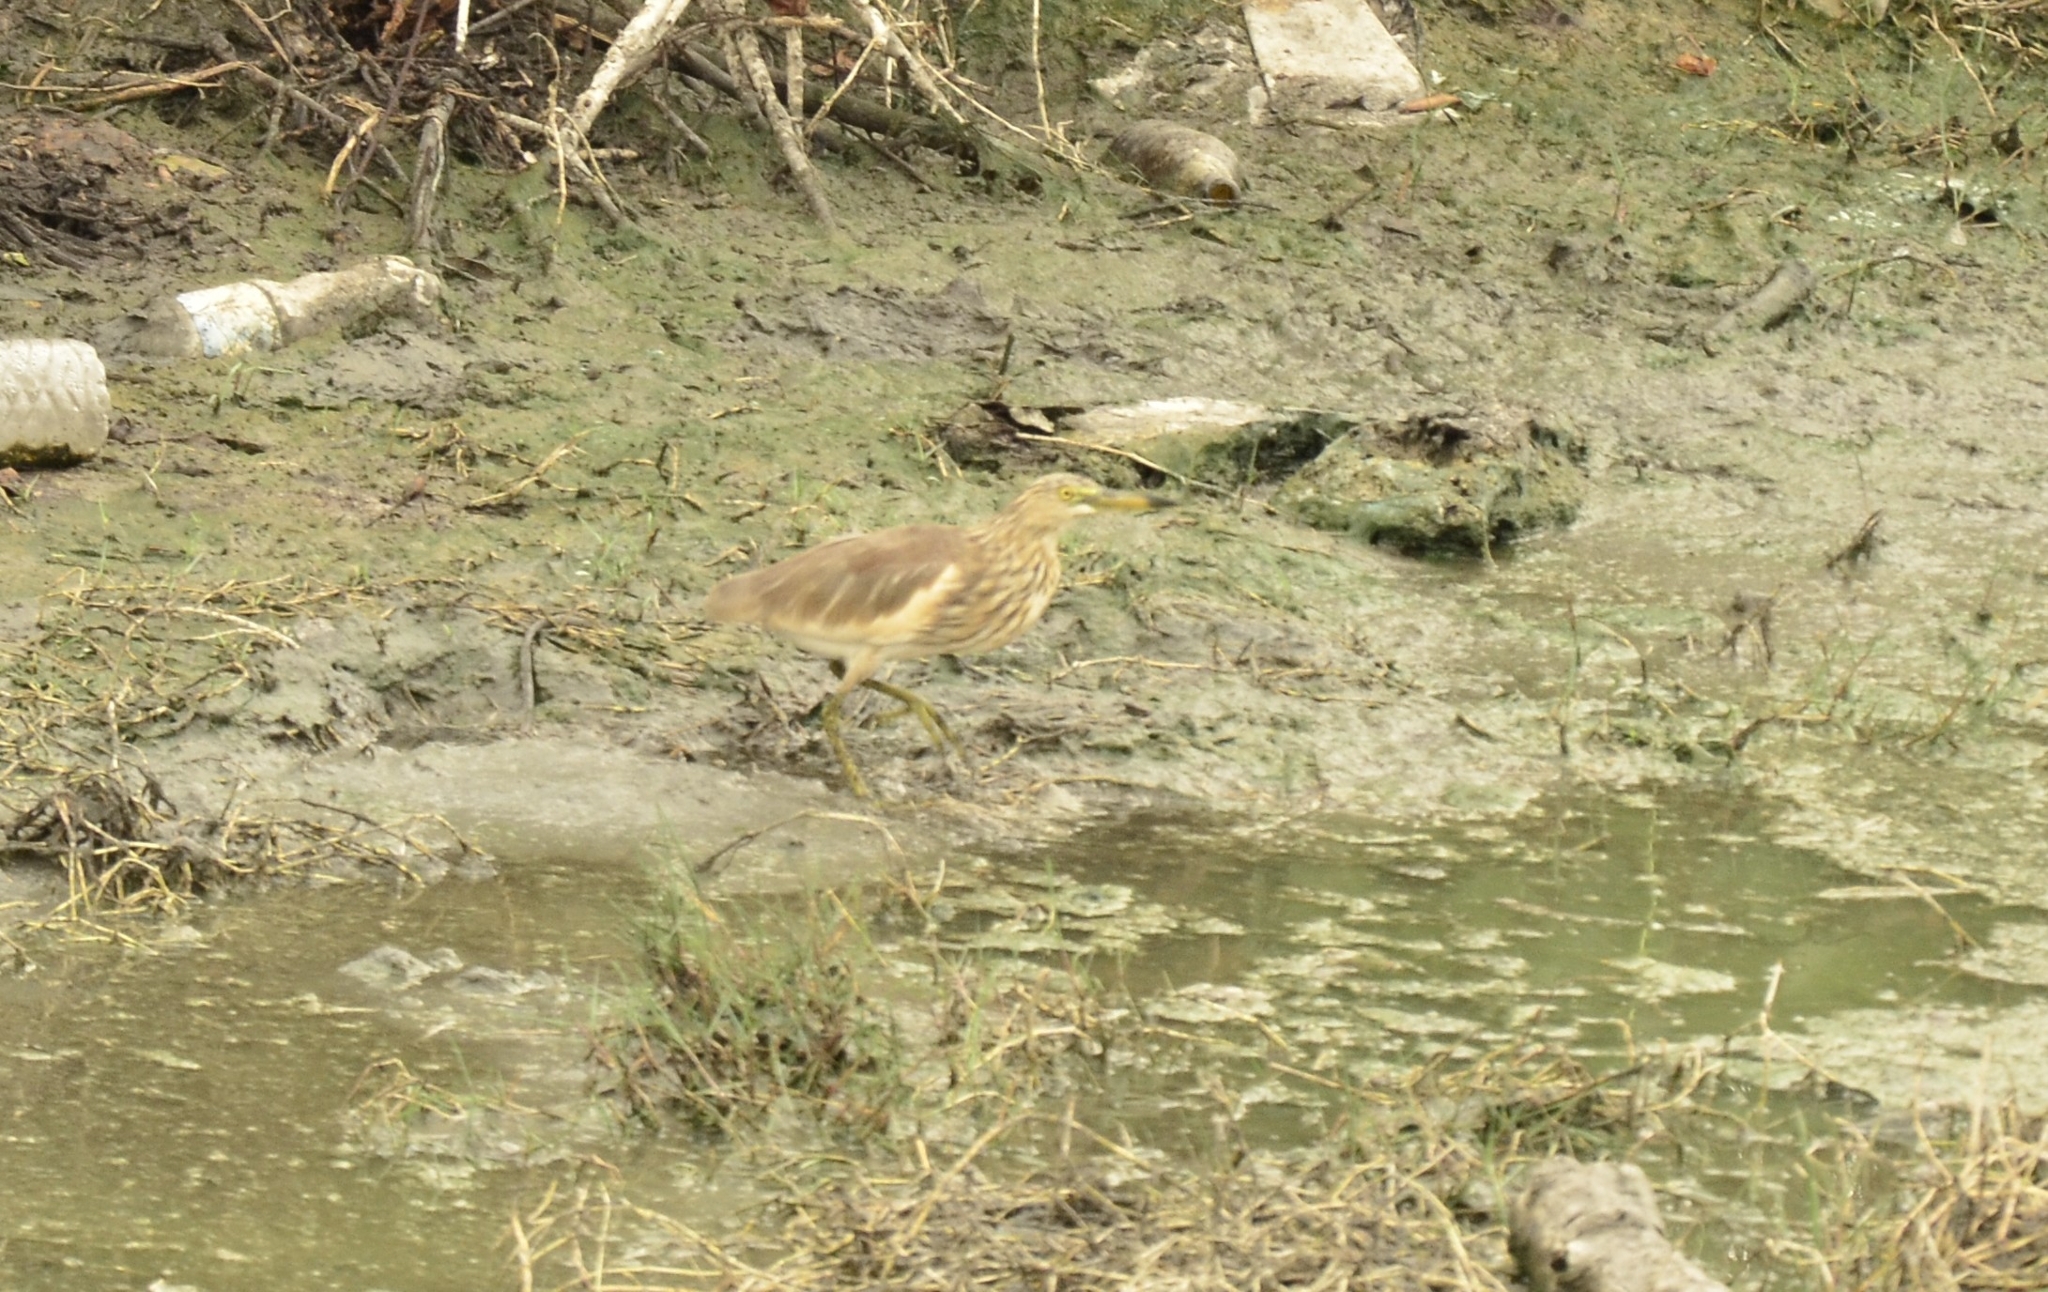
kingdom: Animalia
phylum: Chordata
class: Aves
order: Pelecaniformes
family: Ardeidae
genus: Ardeola
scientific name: Ardeola grayii
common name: Indian pond heron
